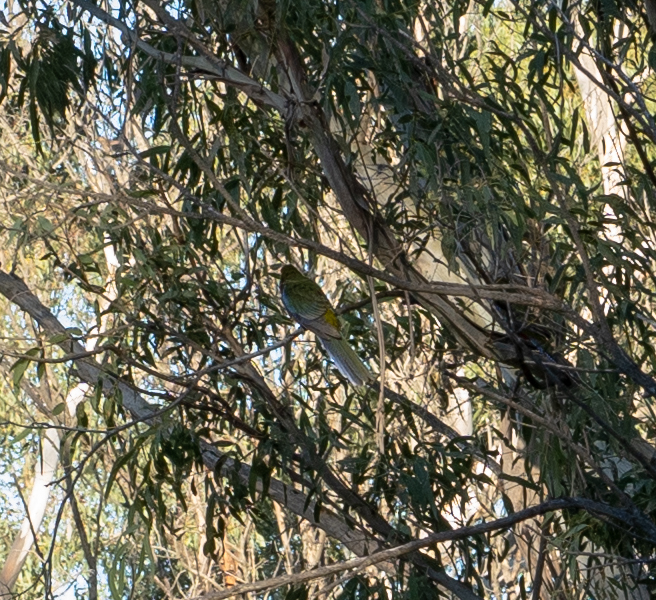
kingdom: Animalia
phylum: Chordata
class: Aves
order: Psittaciformes
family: Psittacidae
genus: Platycercus
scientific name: Platycercus elegans
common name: Crimson rosella
